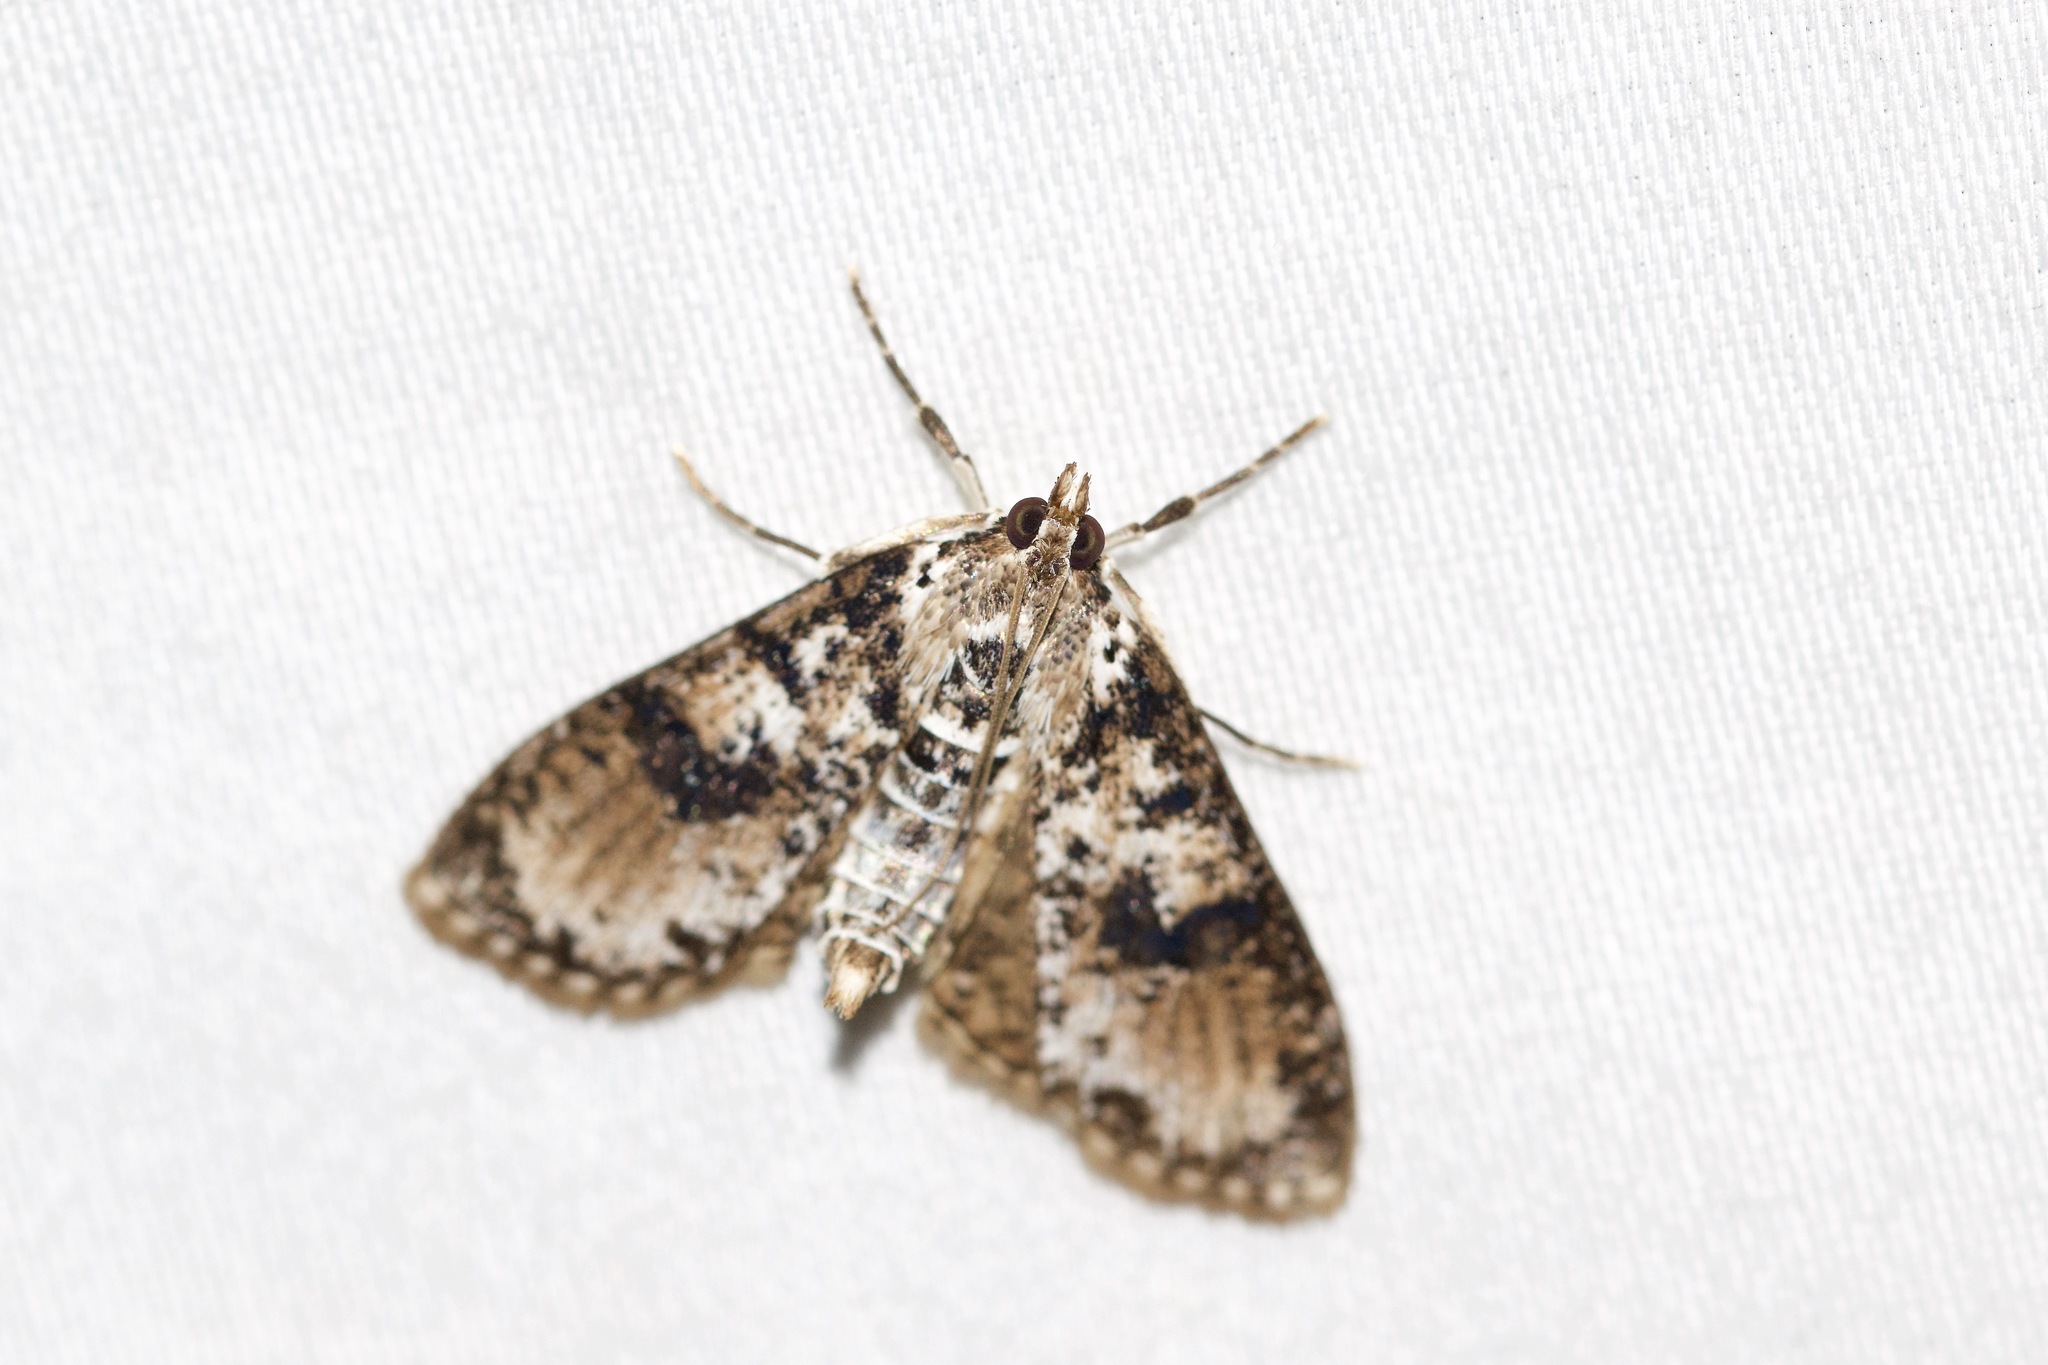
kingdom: Animalia
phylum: Arthropoda
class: Insecta
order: Lepidoptera
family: Crambidae
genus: Palpita
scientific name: Palpita magniferalis
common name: Splendid palpita moth
